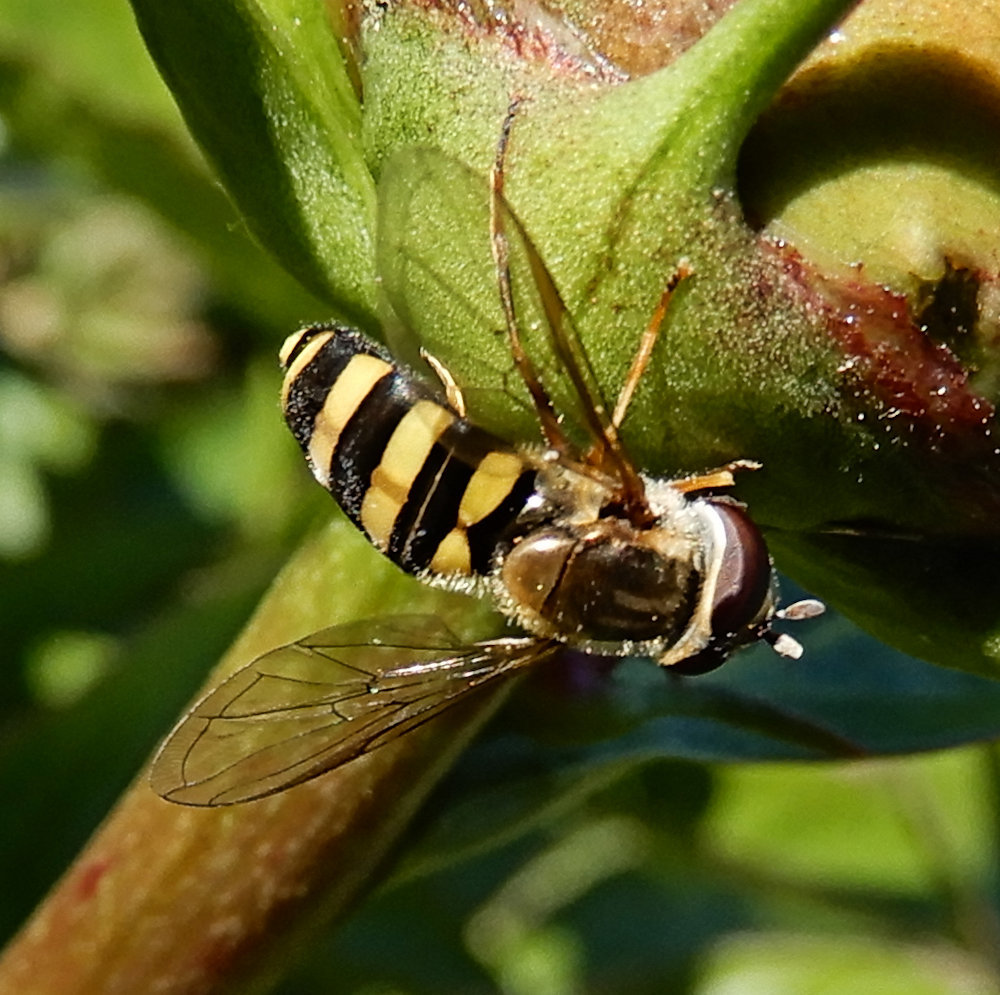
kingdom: Animalia
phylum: Arthropoda
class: Insecta
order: Diptera
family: Syrphidae
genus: Eupeodes
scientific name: Eupeodes
